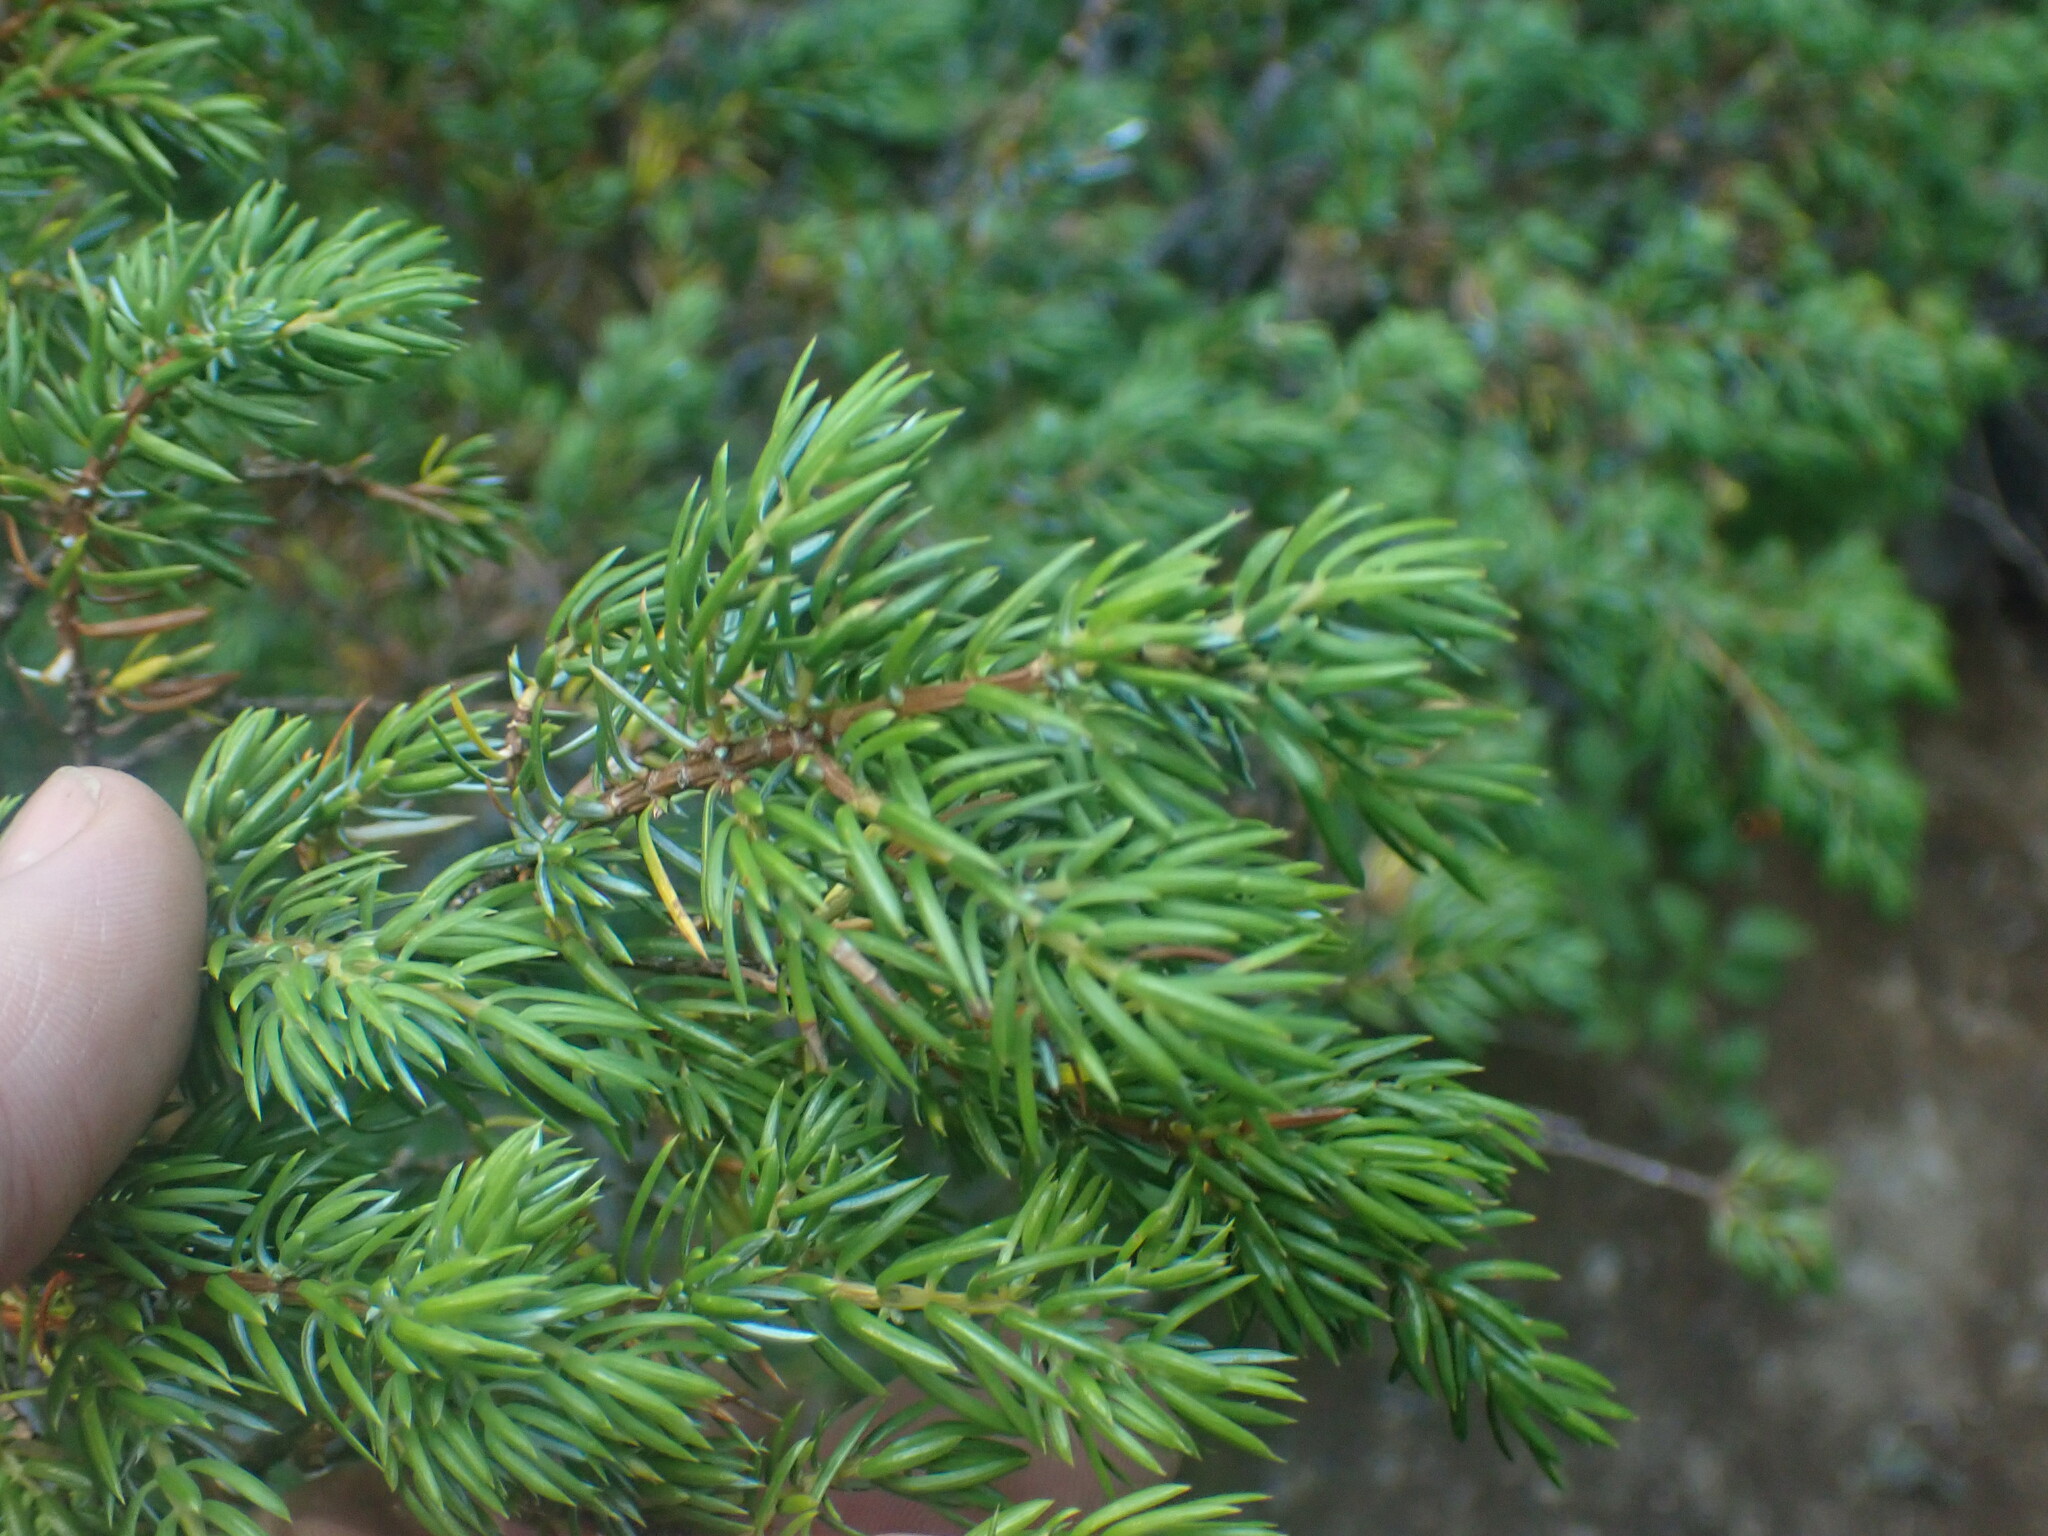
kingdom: Plantae
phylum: Tracheophyta
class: Pinopsida
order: Pinales
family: Cupressaceae
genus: Juniperus
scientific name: Juniperus communis
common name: Common juniper
